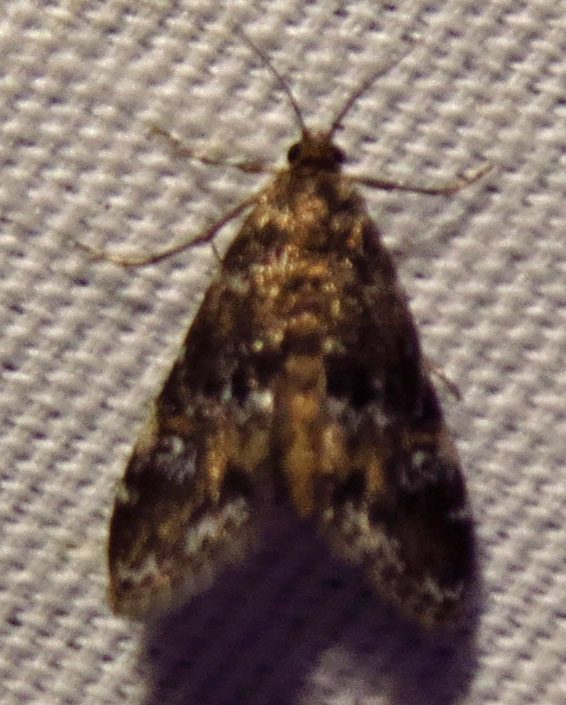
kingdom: Animalia
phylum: Arthropoda
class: Insecta
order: Lepidoptera
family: Crambidae
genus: Elophila
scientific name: Elophila obliteralis
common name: Waterlily leafcutter moth
